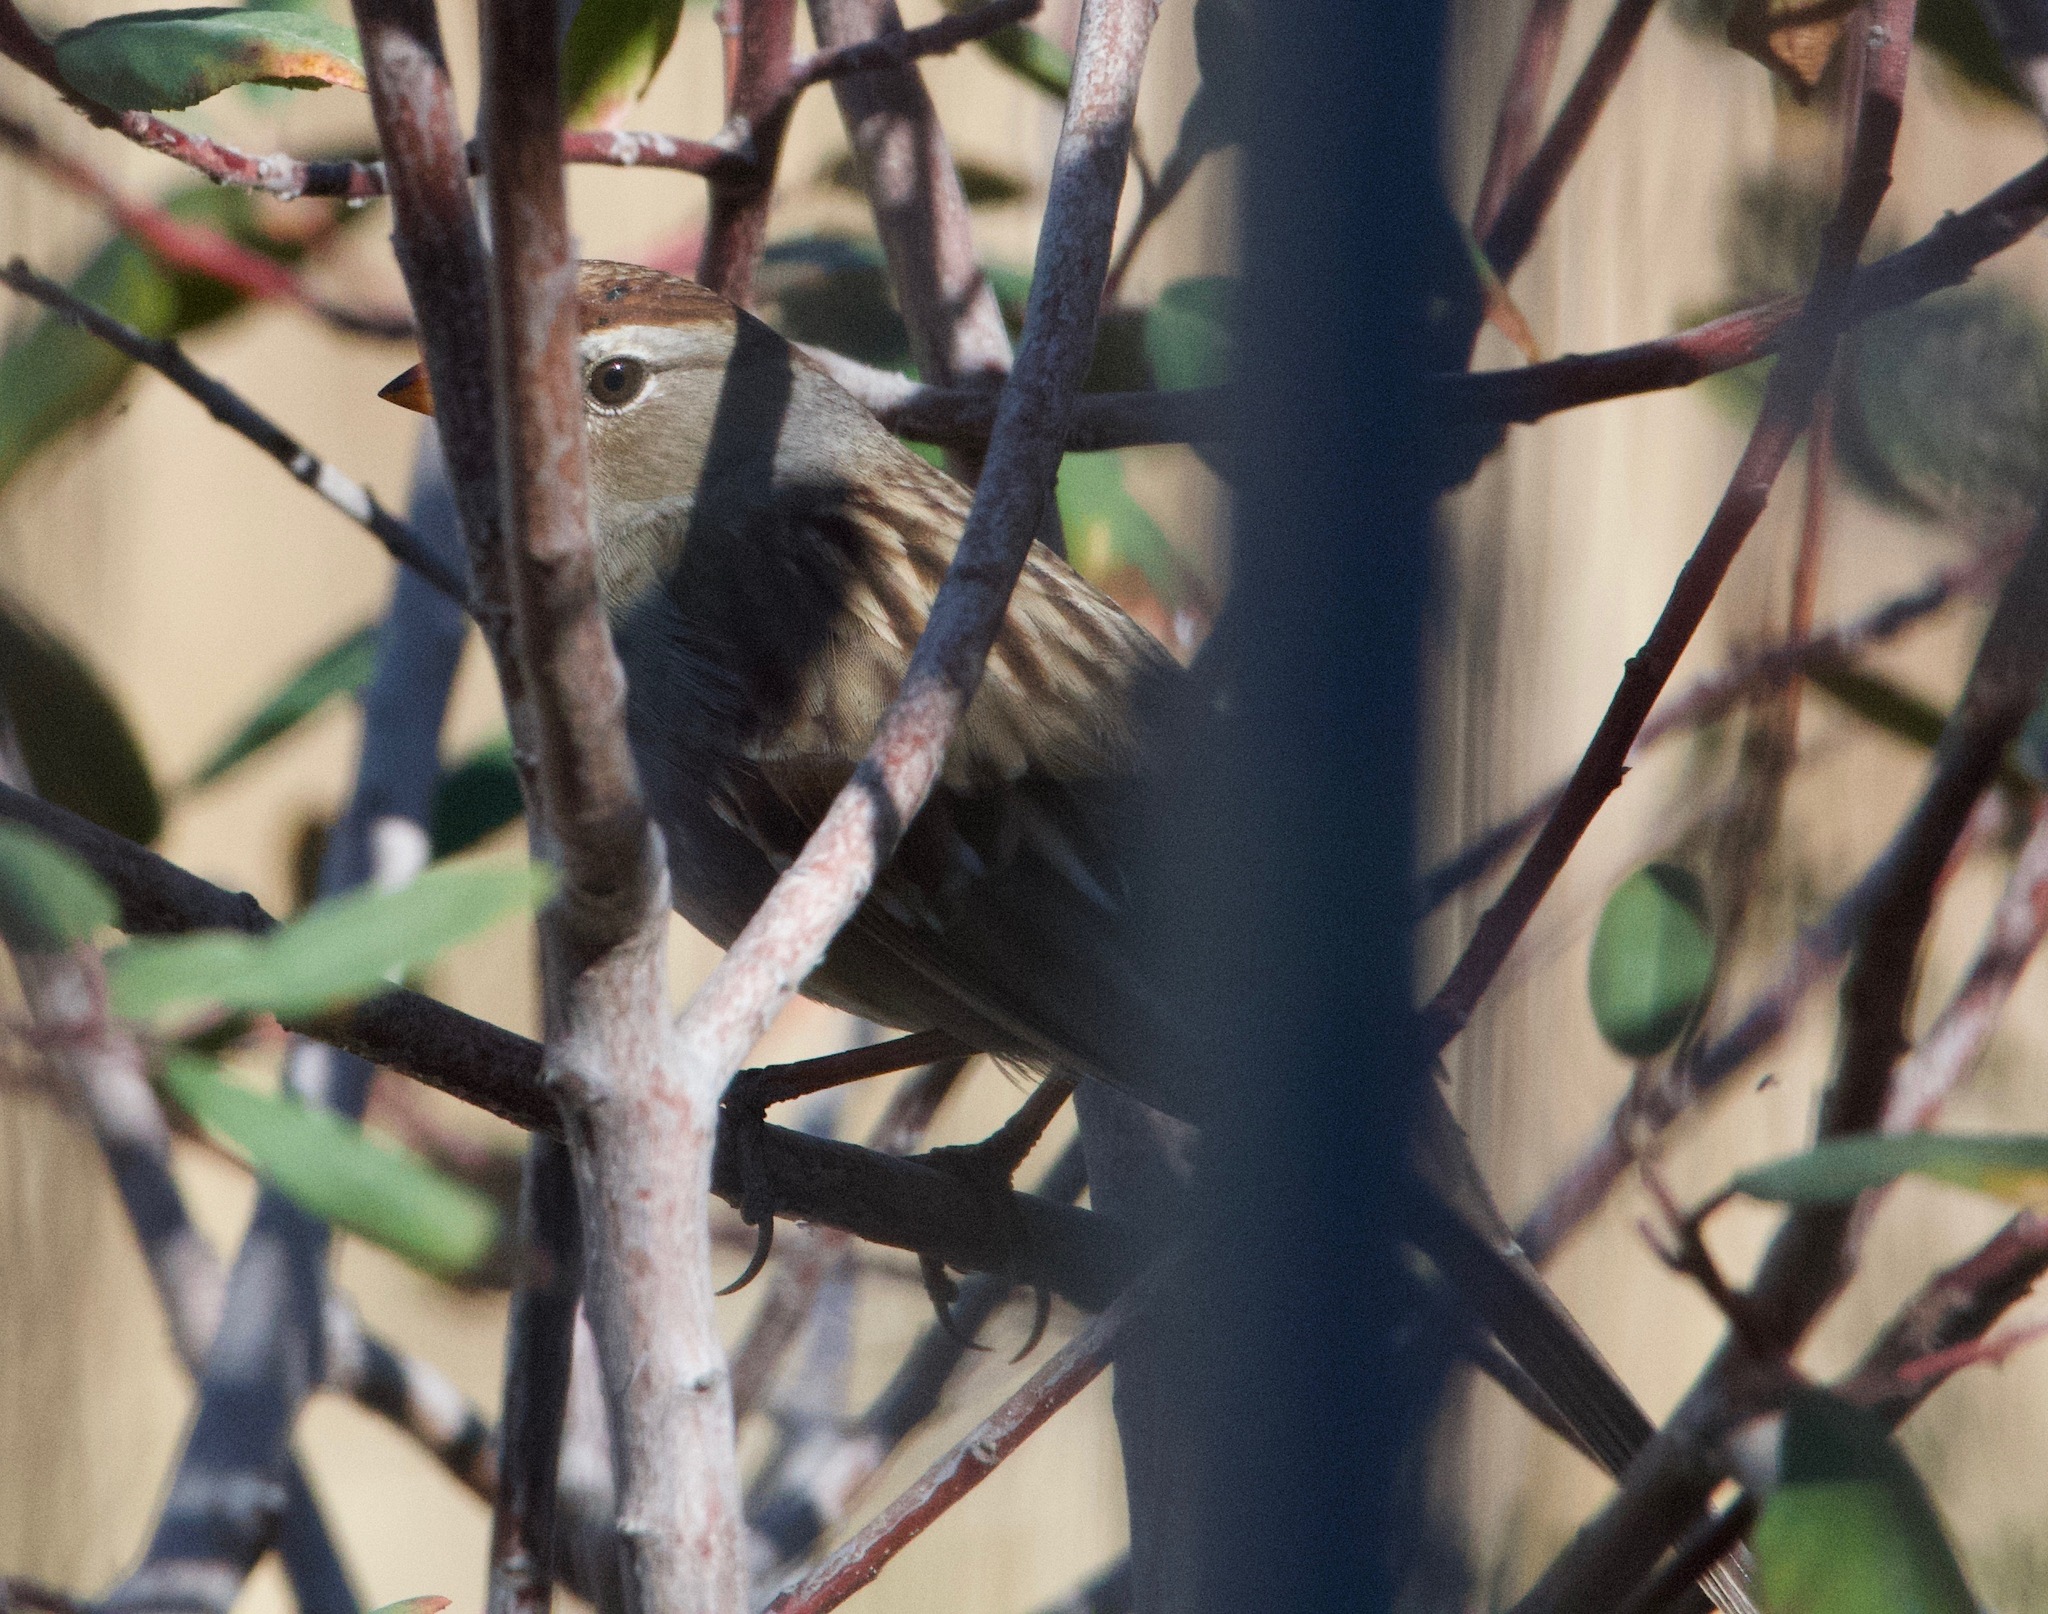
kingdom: Animalia
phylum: Chordata
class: Aves
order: Passeriformes
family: Passerellidae
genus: Zonotrichia
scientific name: Zonotrichia leucophrys
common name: White-crowned sparrow
